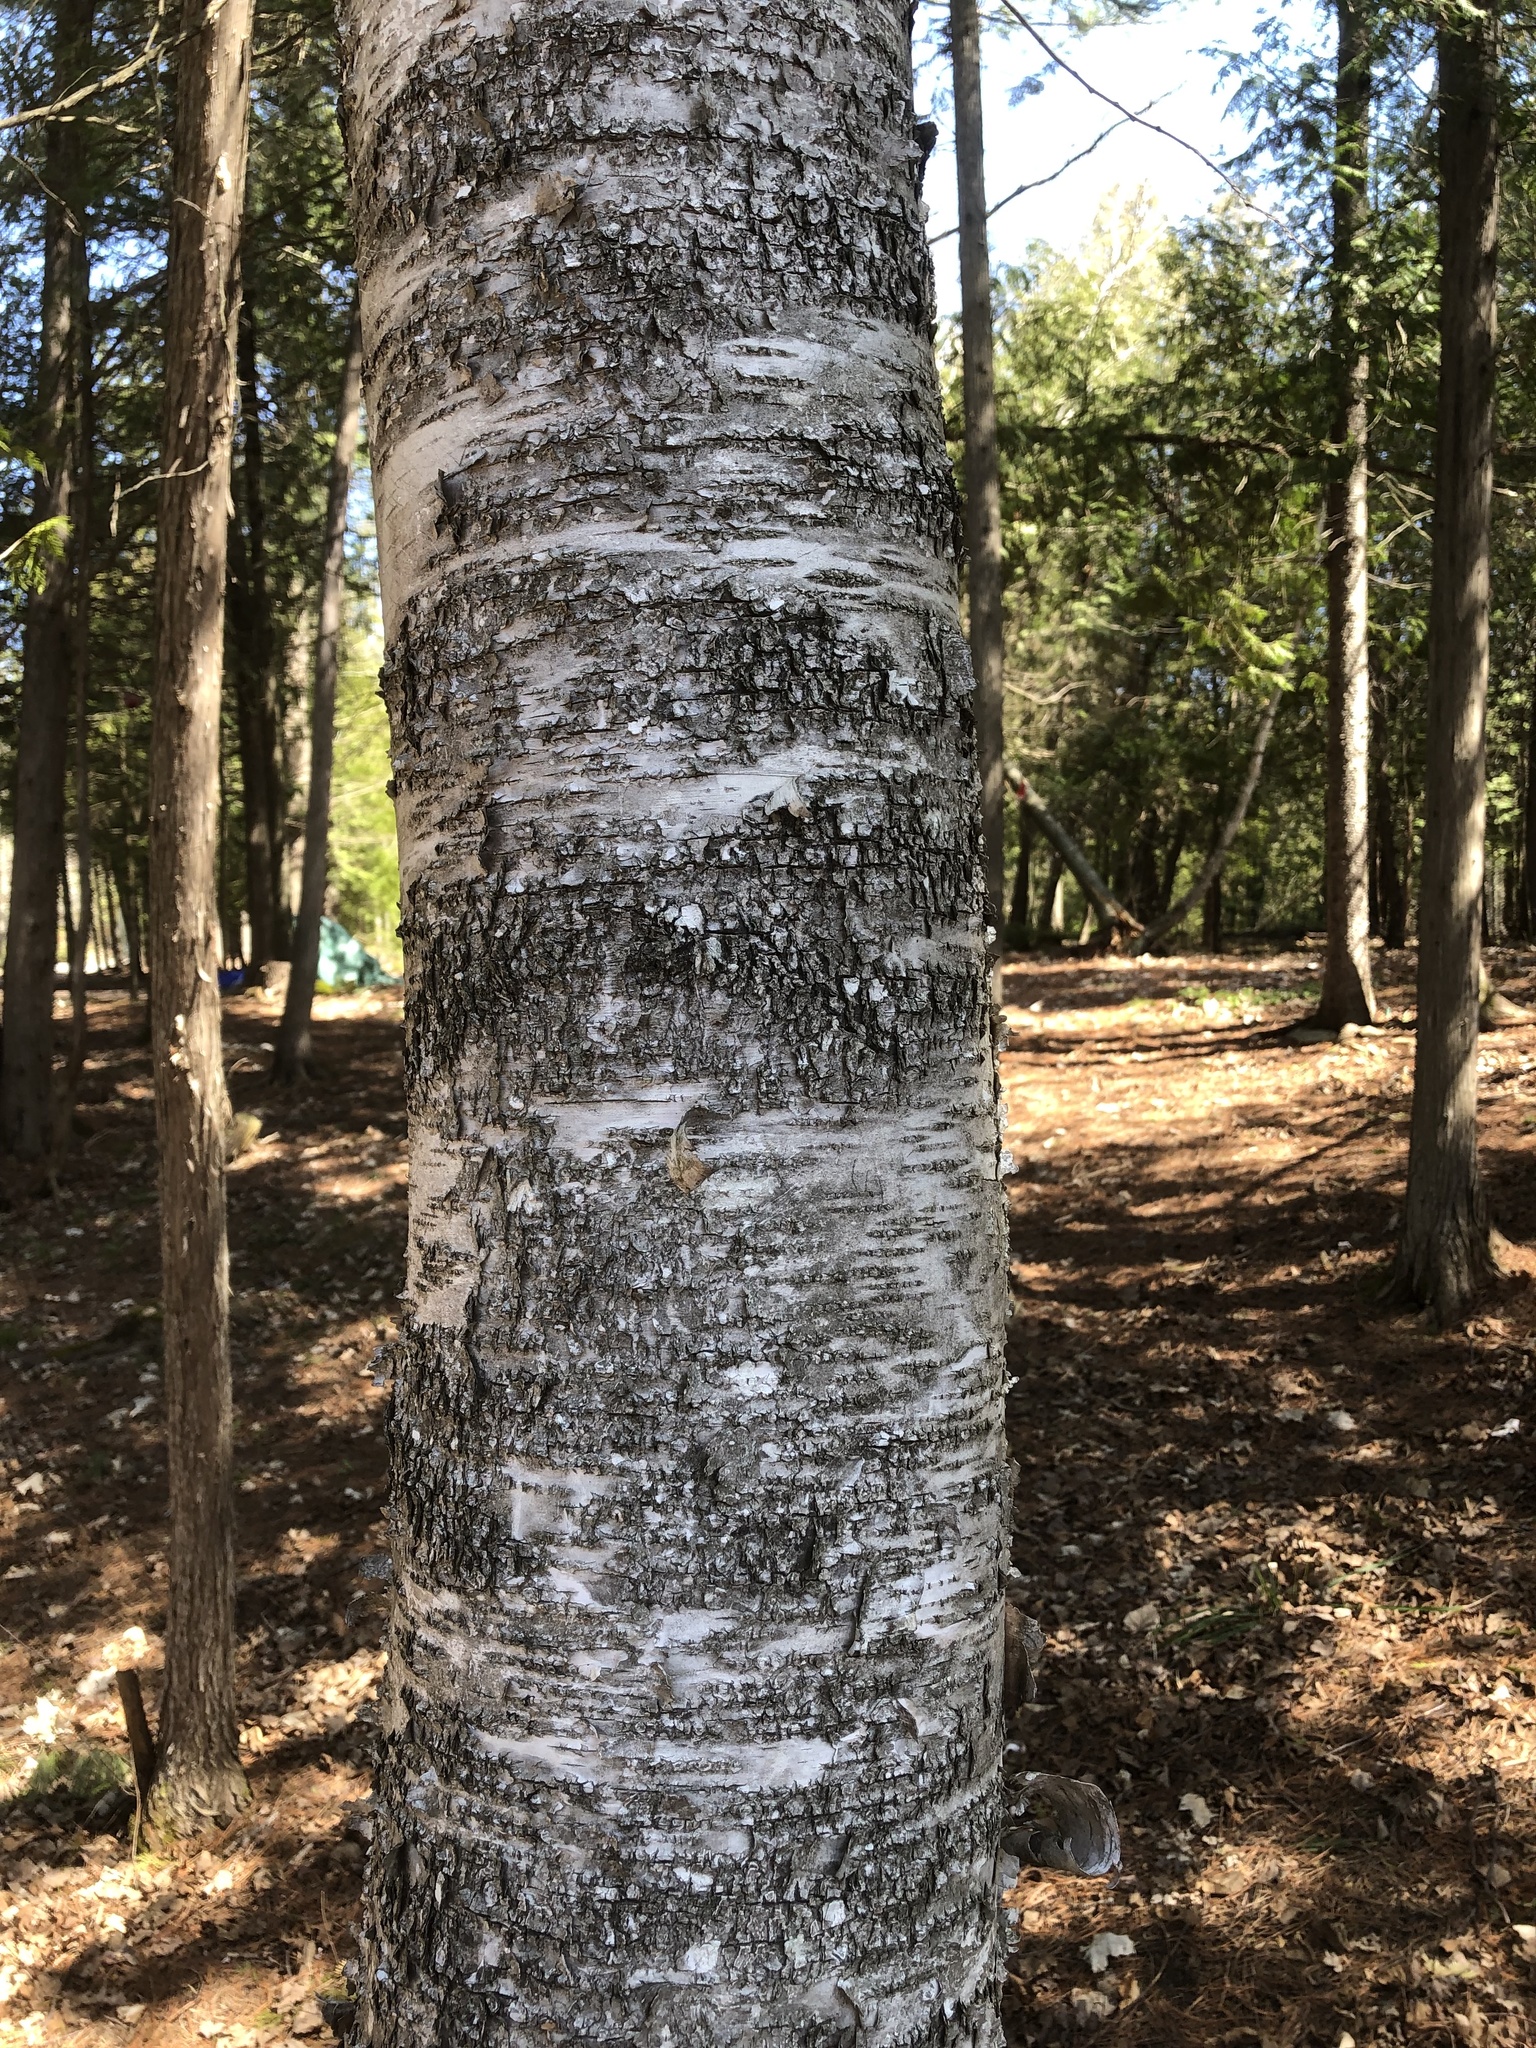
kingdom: Plantae
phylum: Tracheophyta
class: Magnoliopsida
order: Fagales
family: Betulaceae
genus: Betula
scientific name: Betula papyrifera
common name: Paper birch
